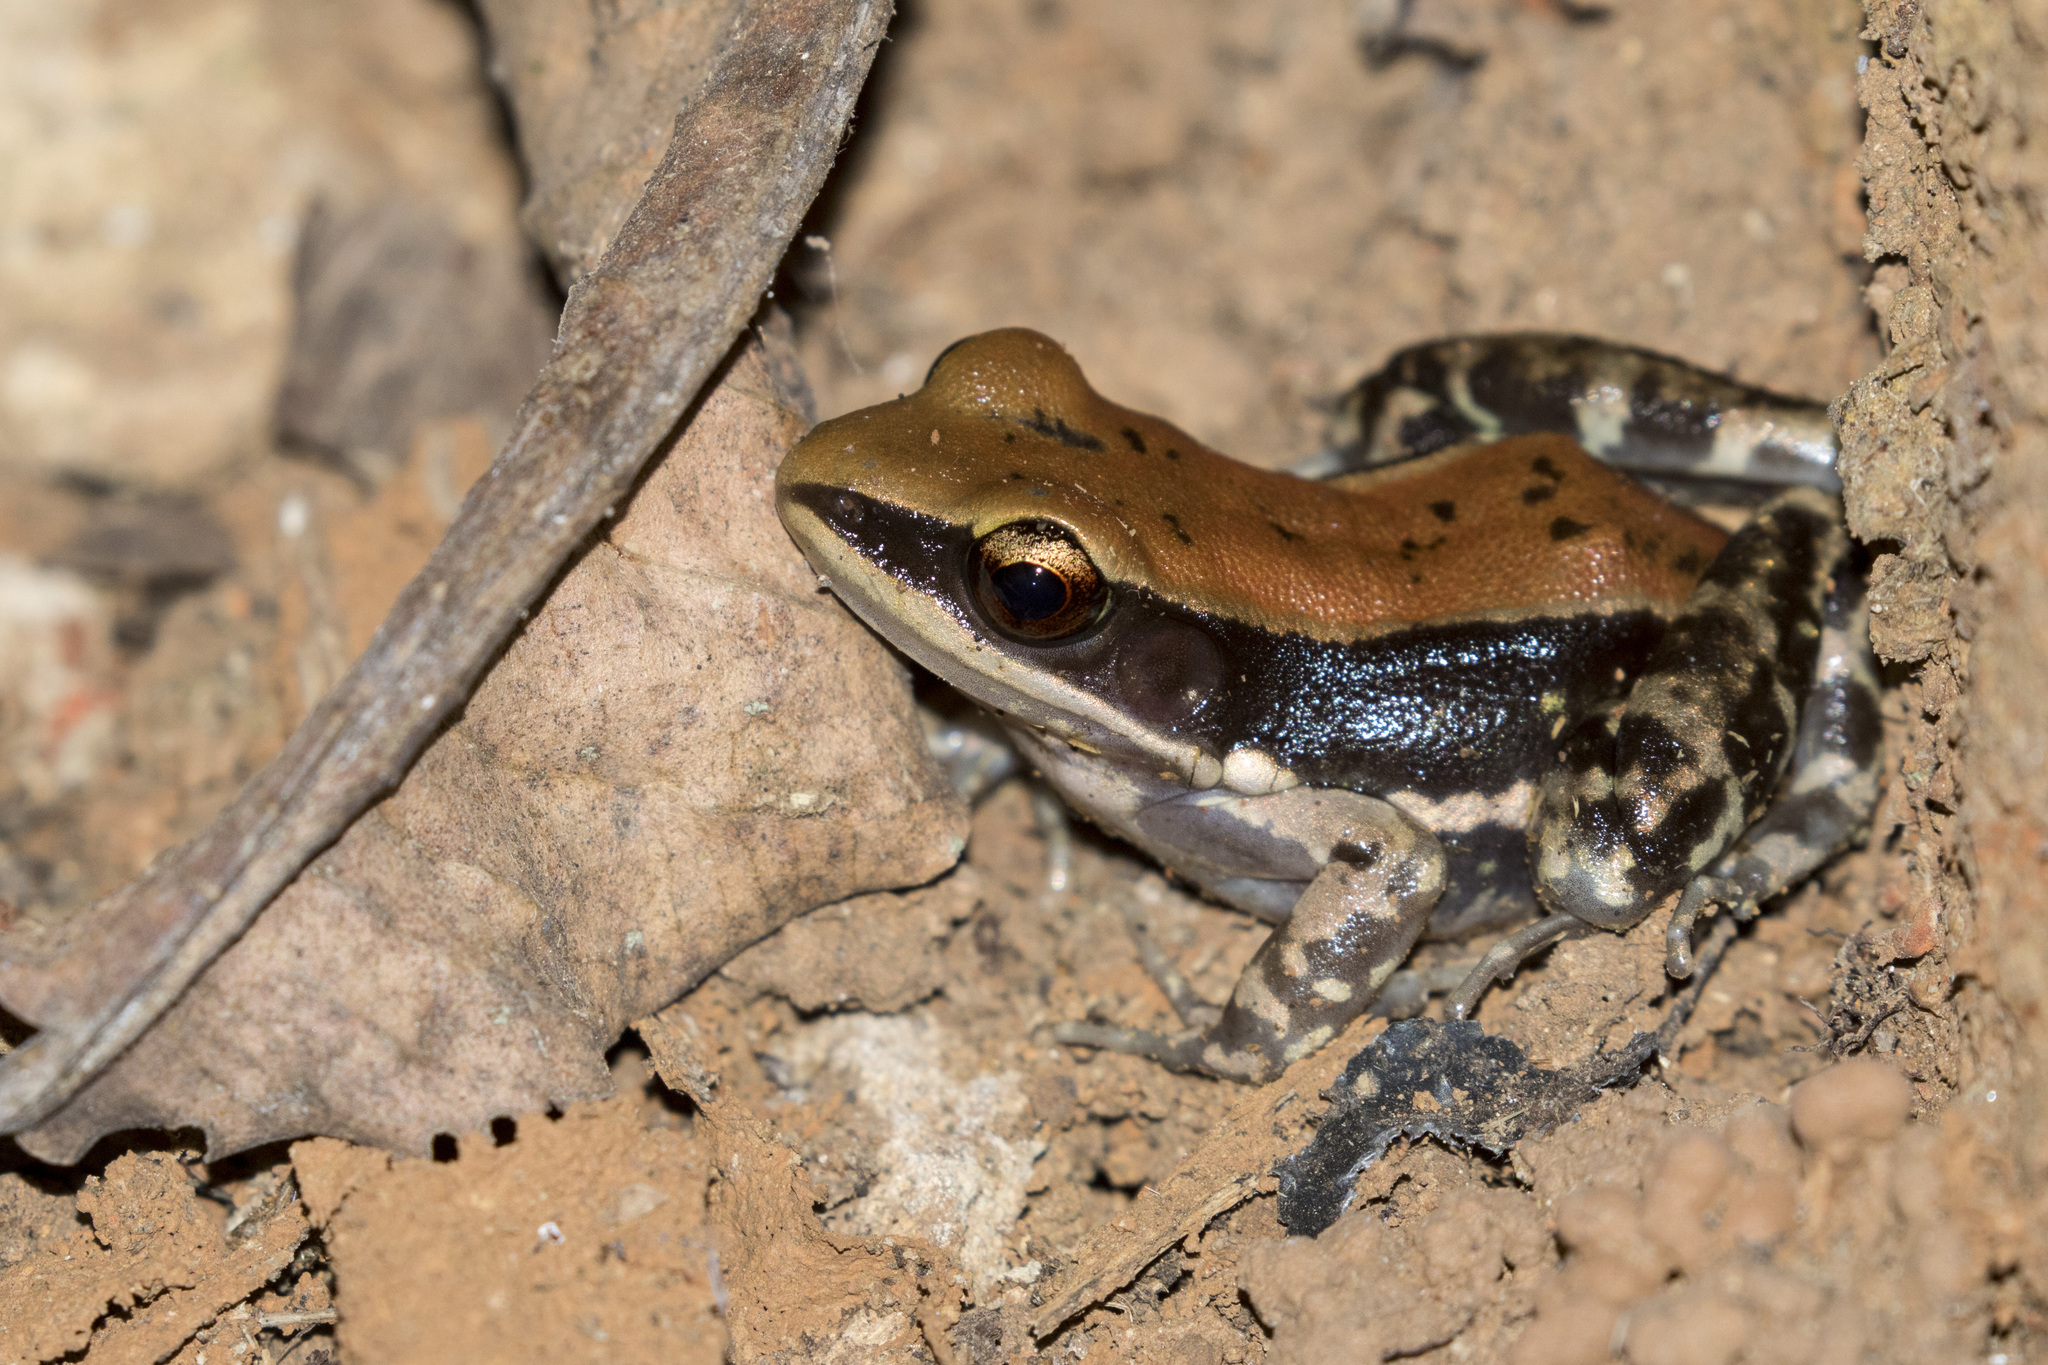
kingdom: Animalia
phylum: Chordata
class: Amphibia
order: Anura
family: Ranidae
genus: Hydrophylax
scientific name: Hydrophylax bahuvistara
